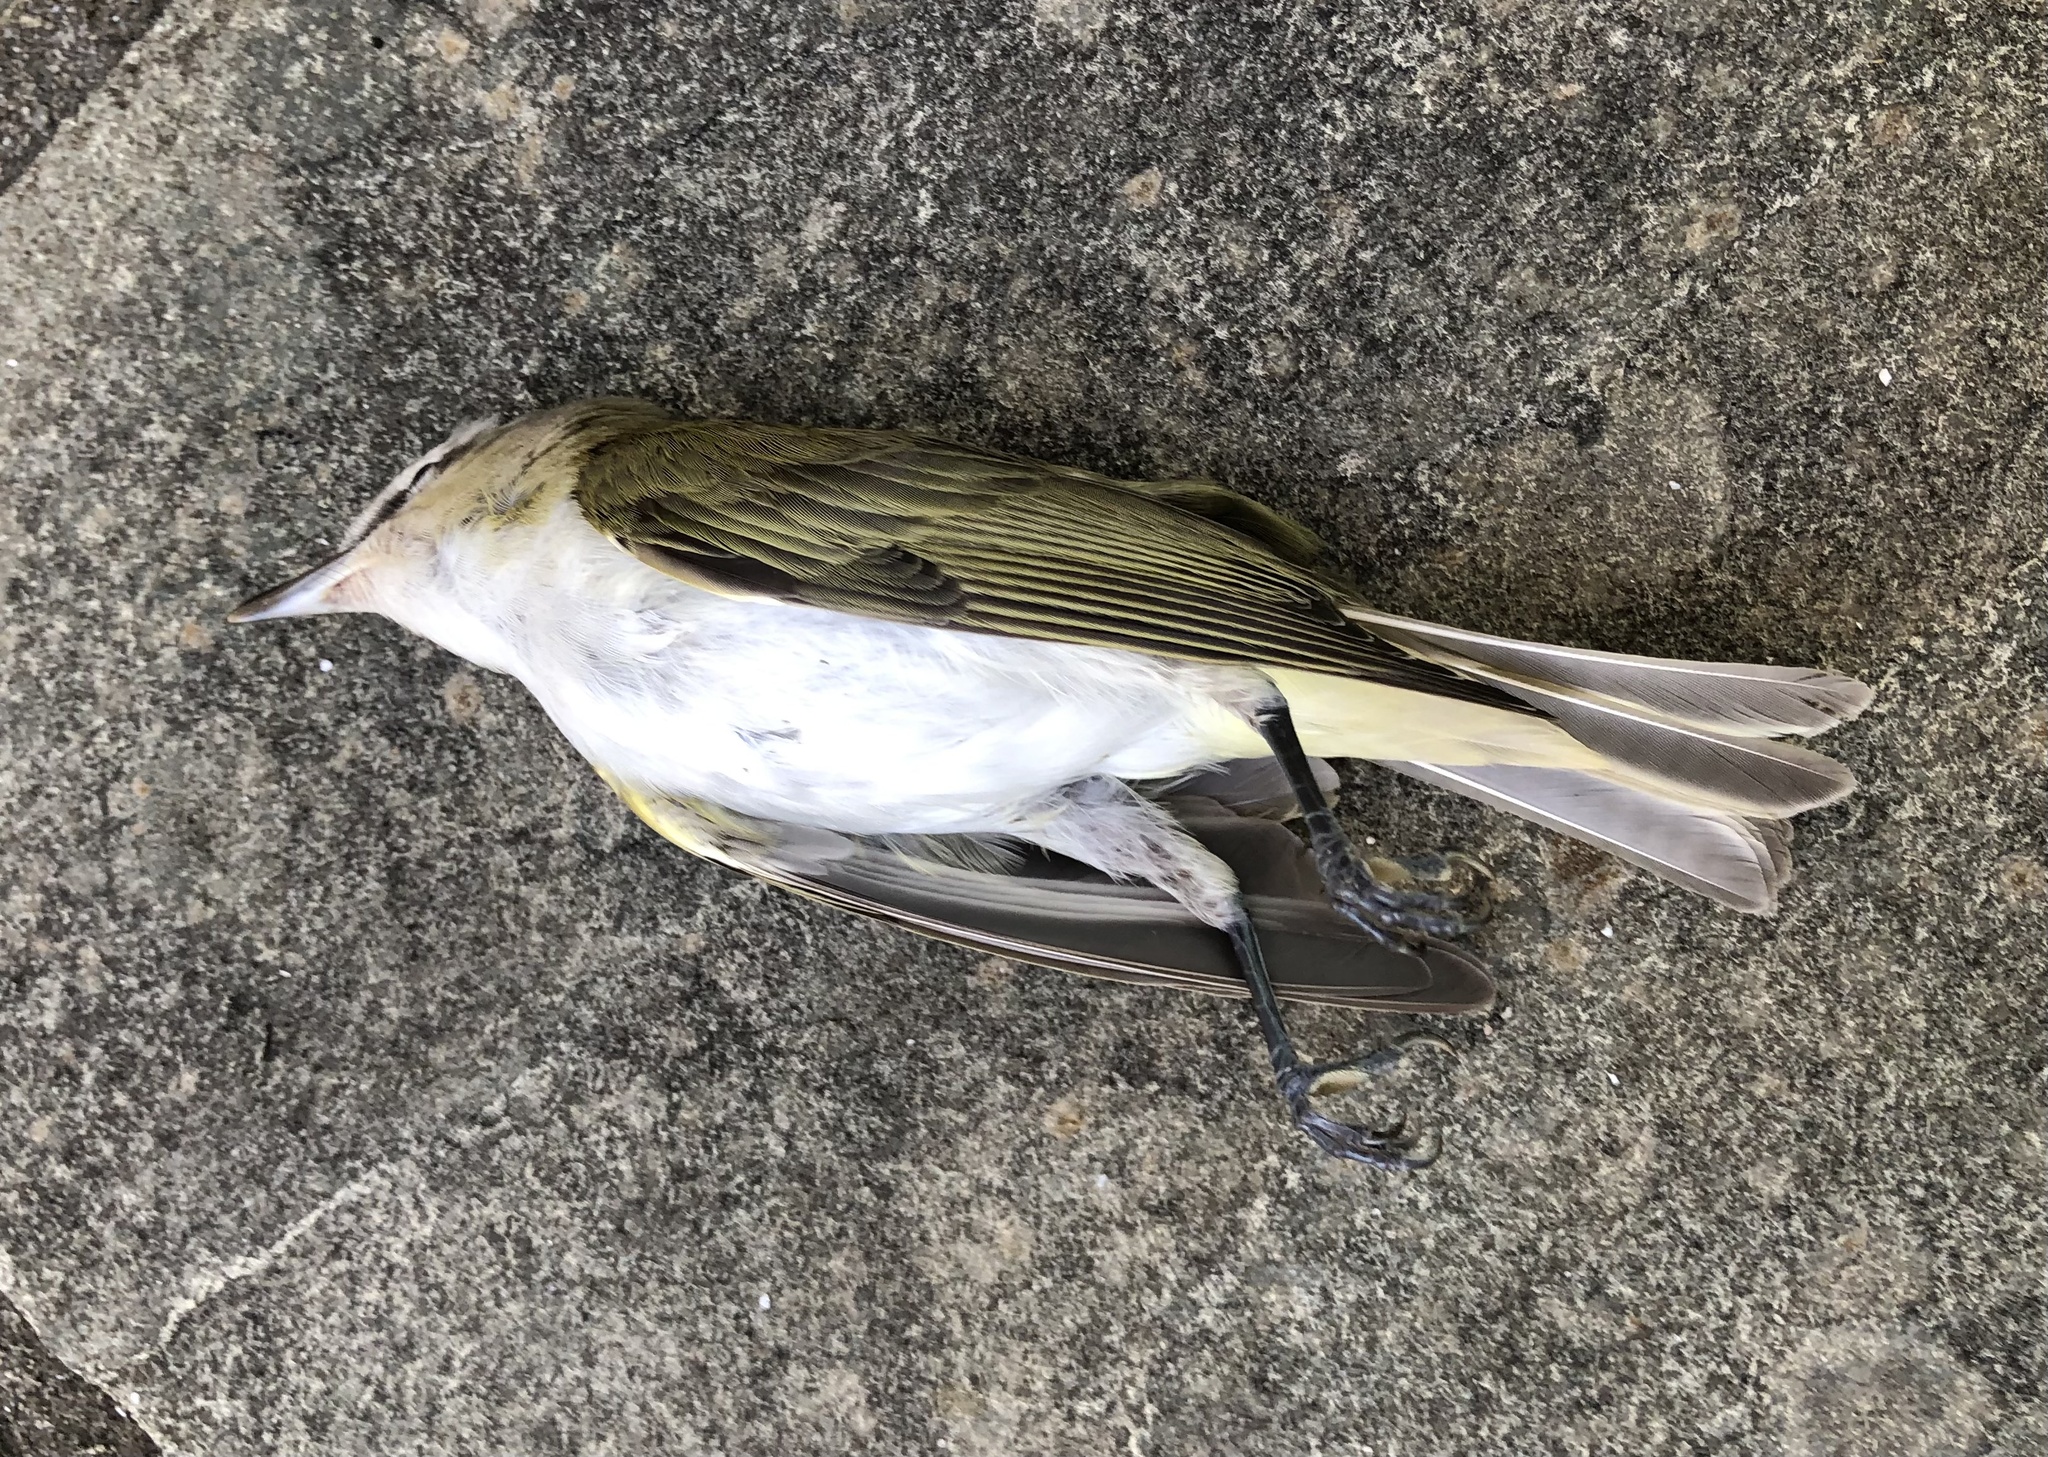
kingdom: Animalia
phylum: Chordata
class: Aves
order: Passeriformes
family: Vireonidae
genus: Vireo
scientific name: Vireo olivaceus
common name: Red-eyed vireo
